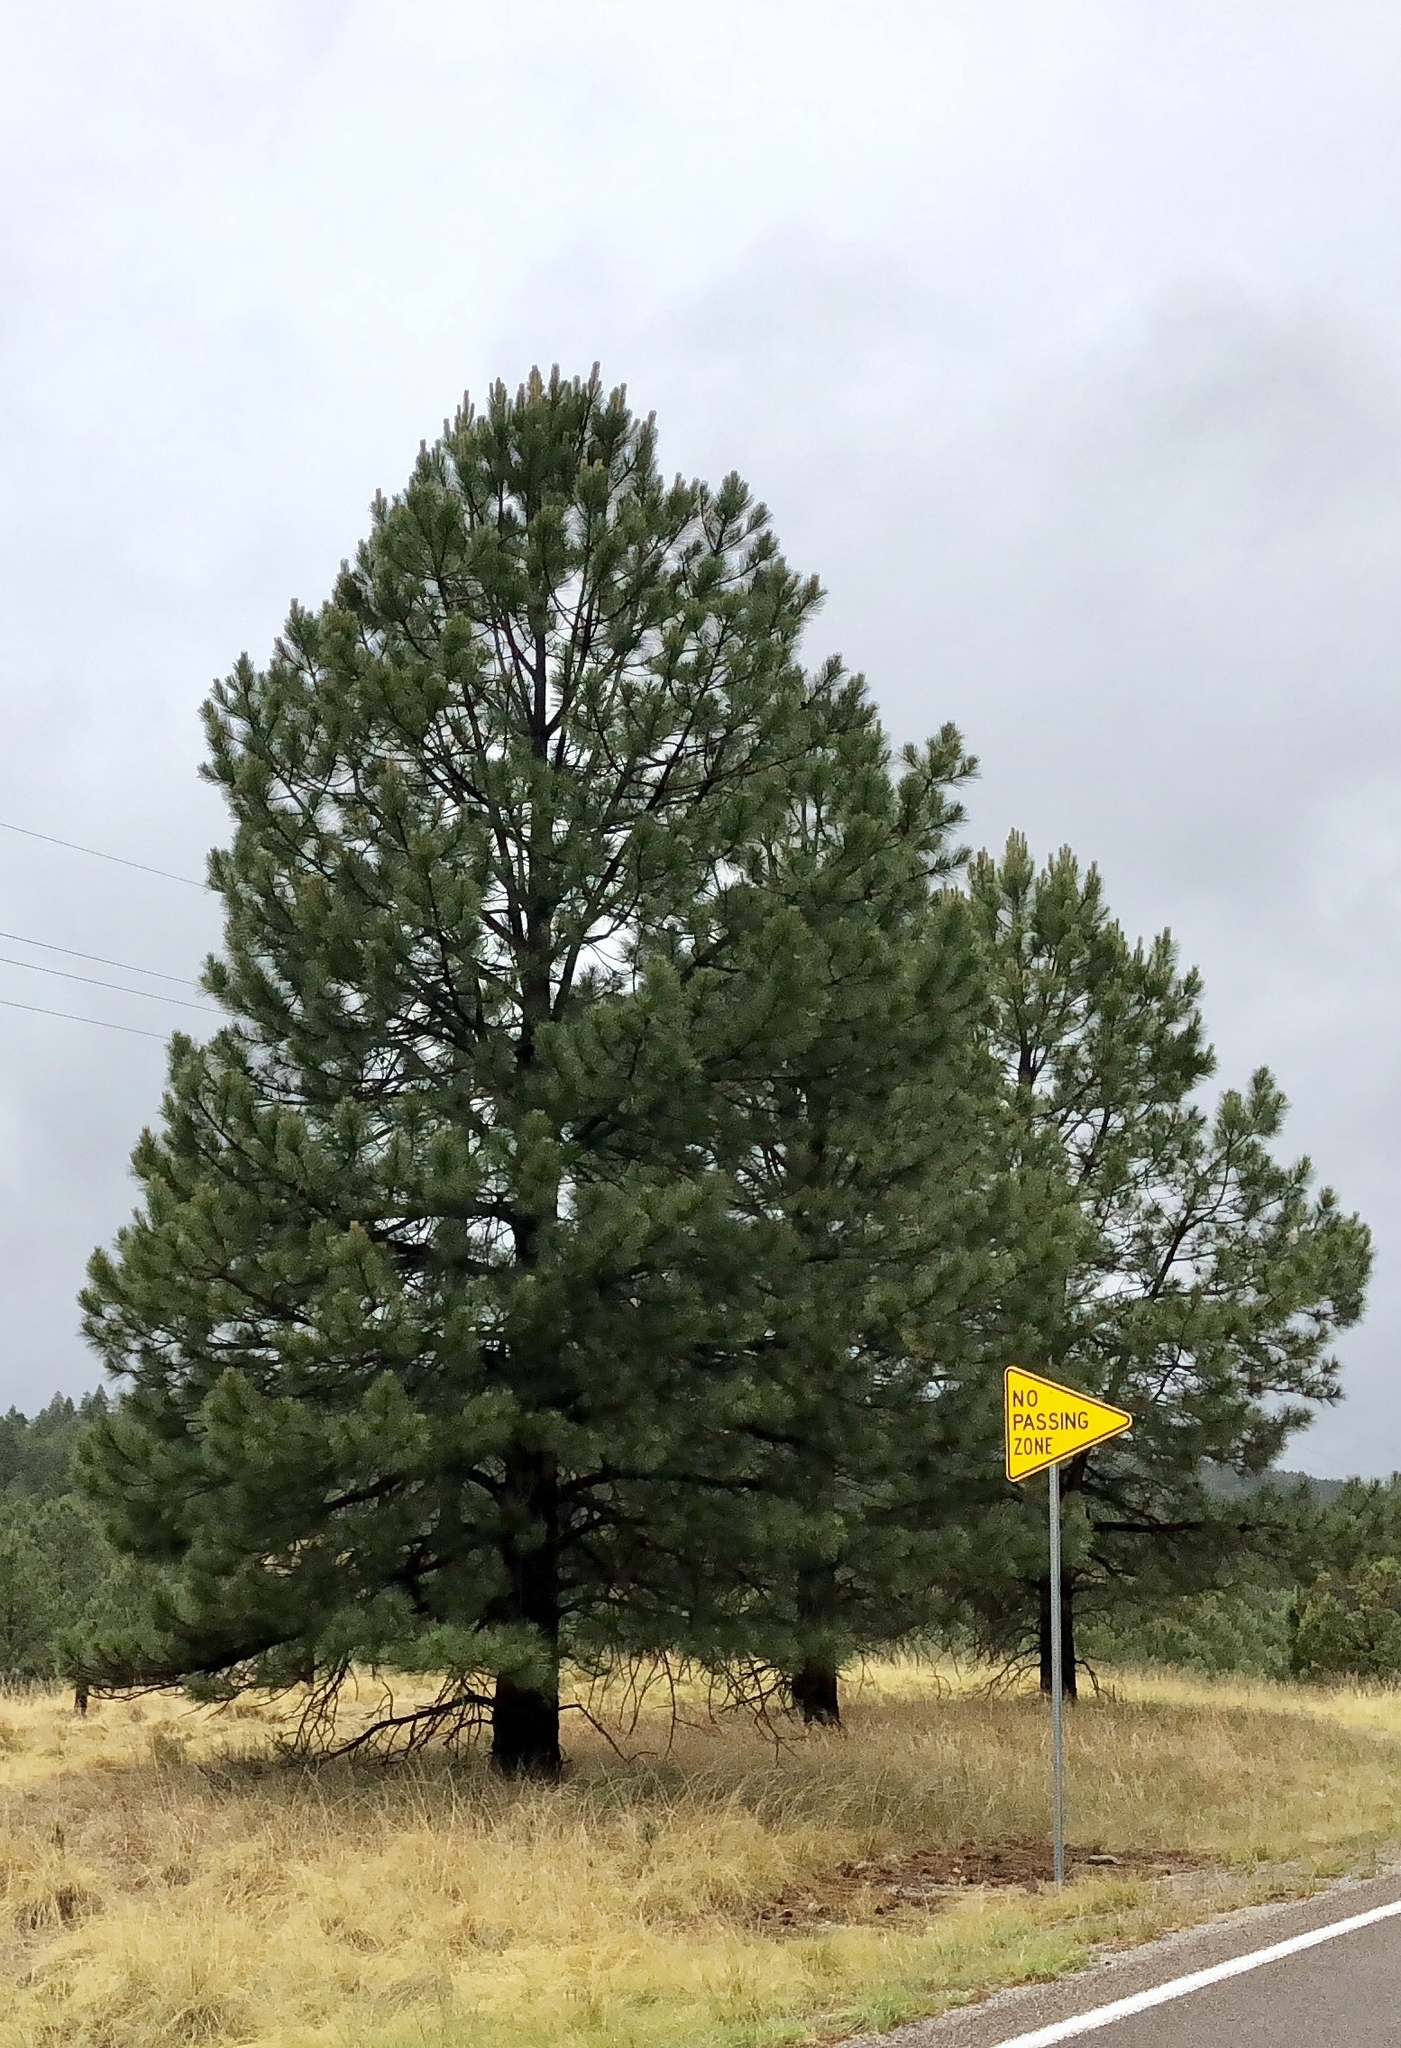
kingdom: Plantae
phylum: Tracheophyta
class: Pinopsida
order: Pinales
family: Pinaceae
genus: Pinus
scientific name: Pinus ponderosa
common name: Western yellow-pine
